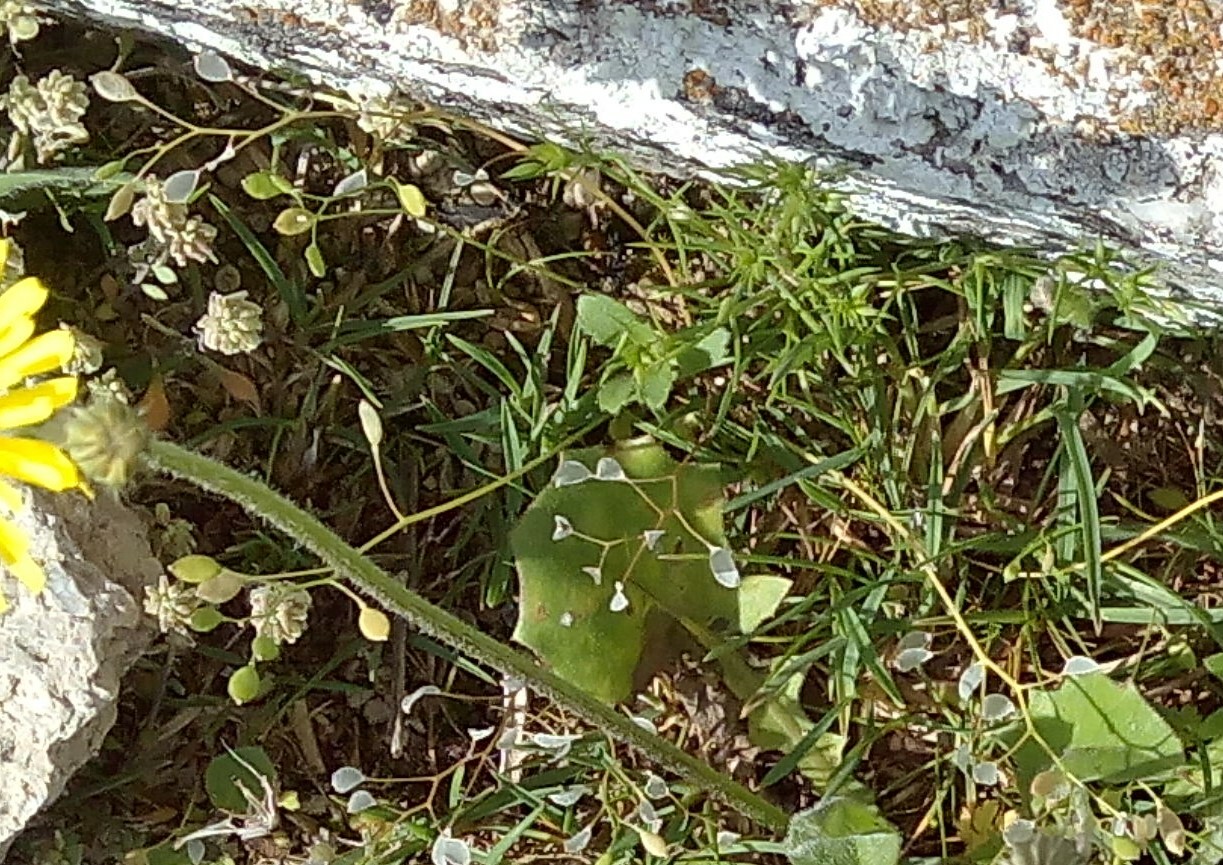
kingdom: Plantae
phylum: Tracheophyta
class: Magnoliopsida
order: Brassicales
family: Brassicaceae
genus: Draba
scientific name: Draba verna
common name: Spring draba
